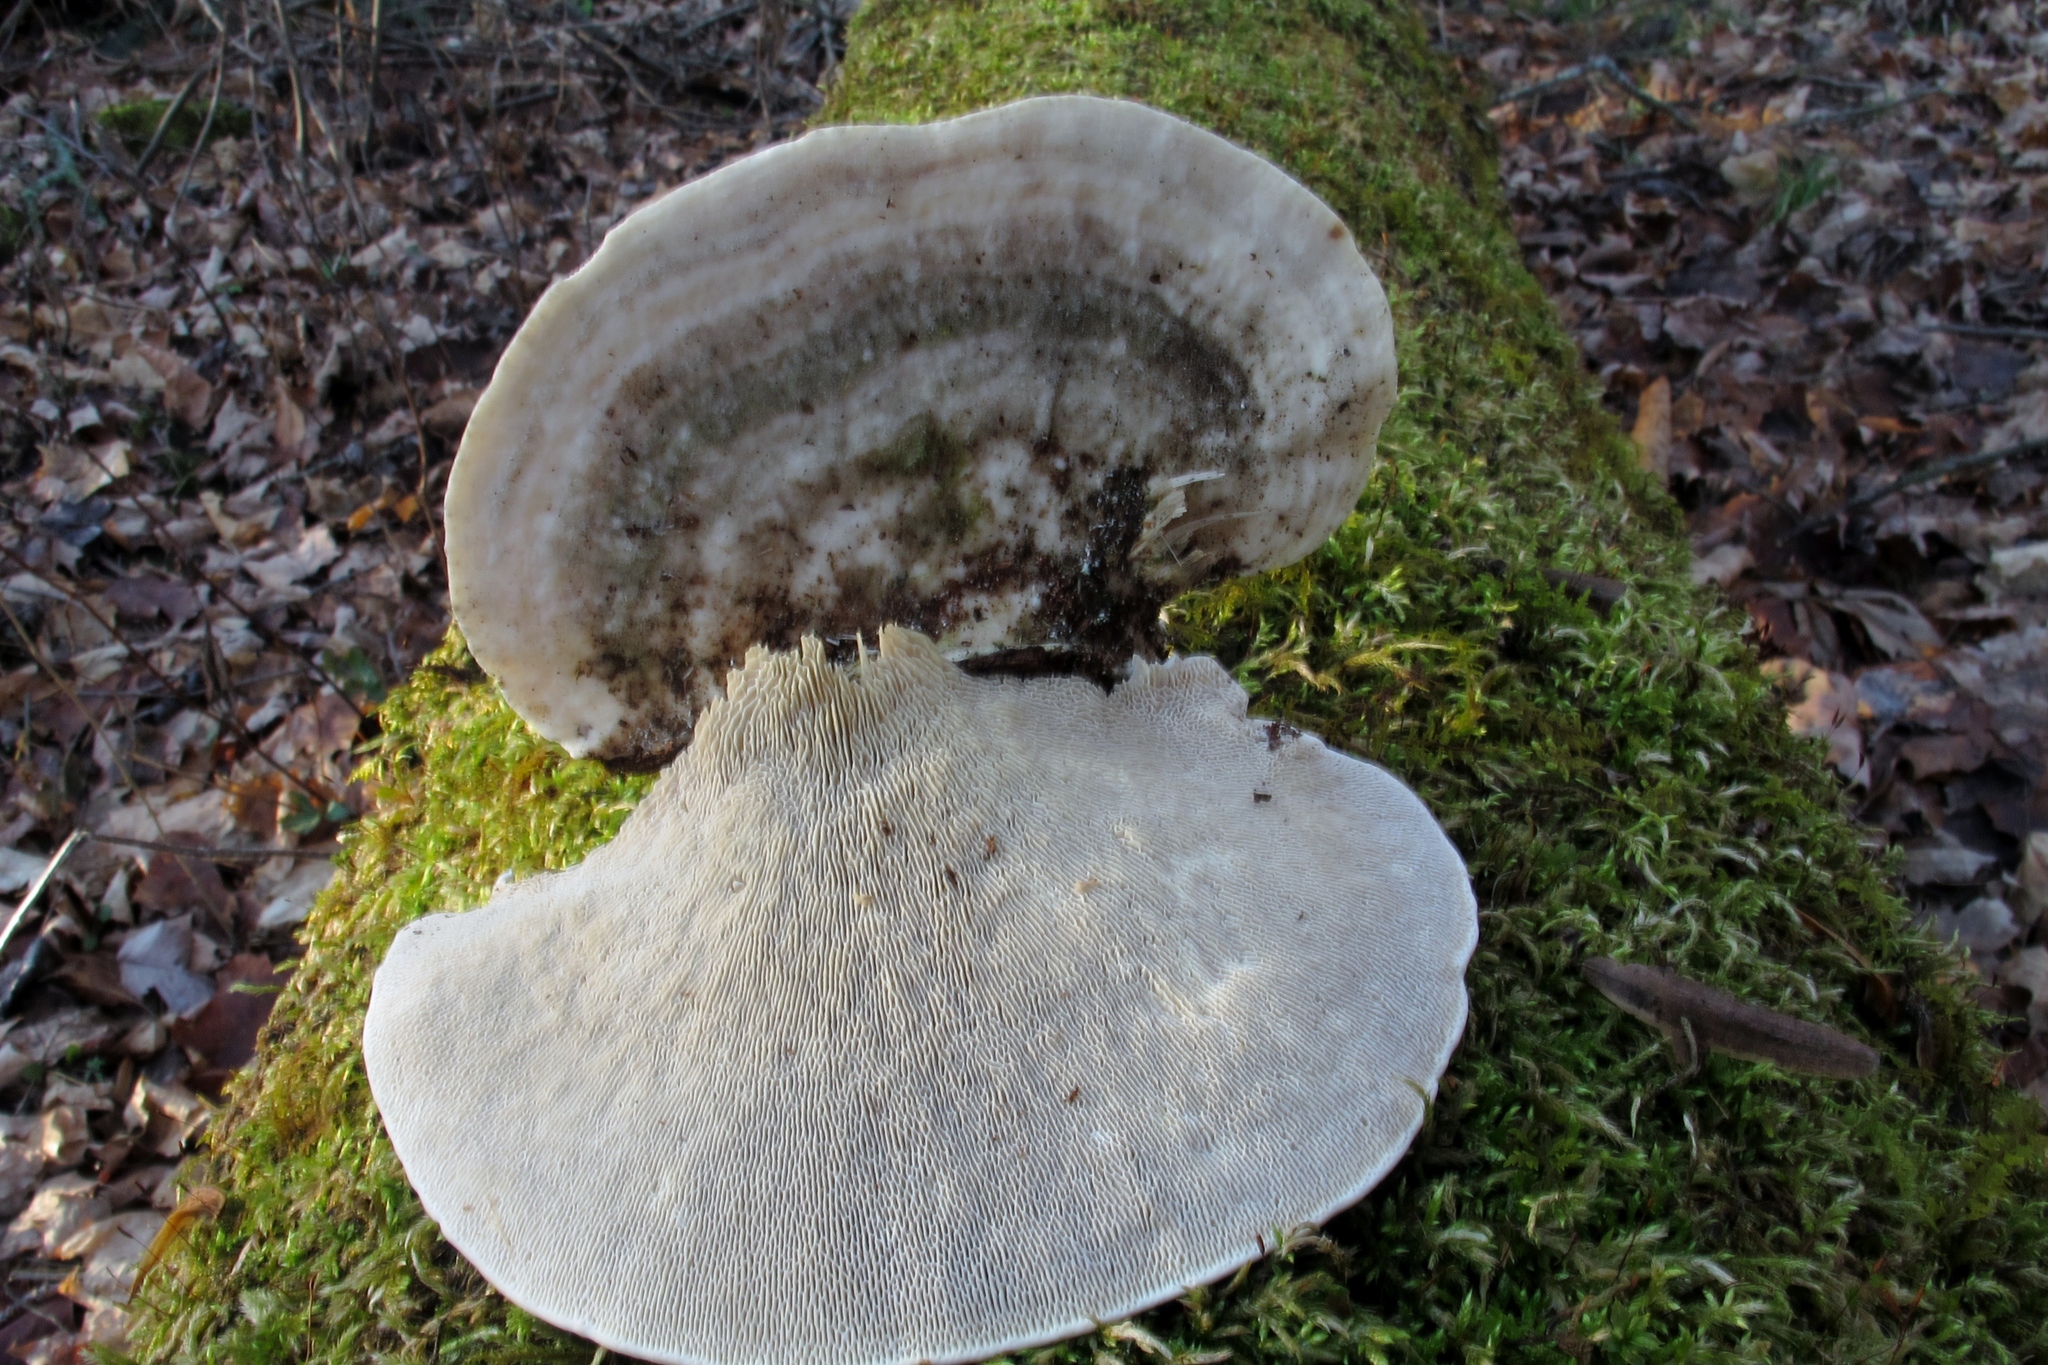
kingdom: Fungi
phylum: Basidiomycota
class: Agaricomycetes
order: Polyporales
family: Polyporaceae
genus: Trametes
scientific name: Trametes gibbosa
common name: Lumpy bracket
